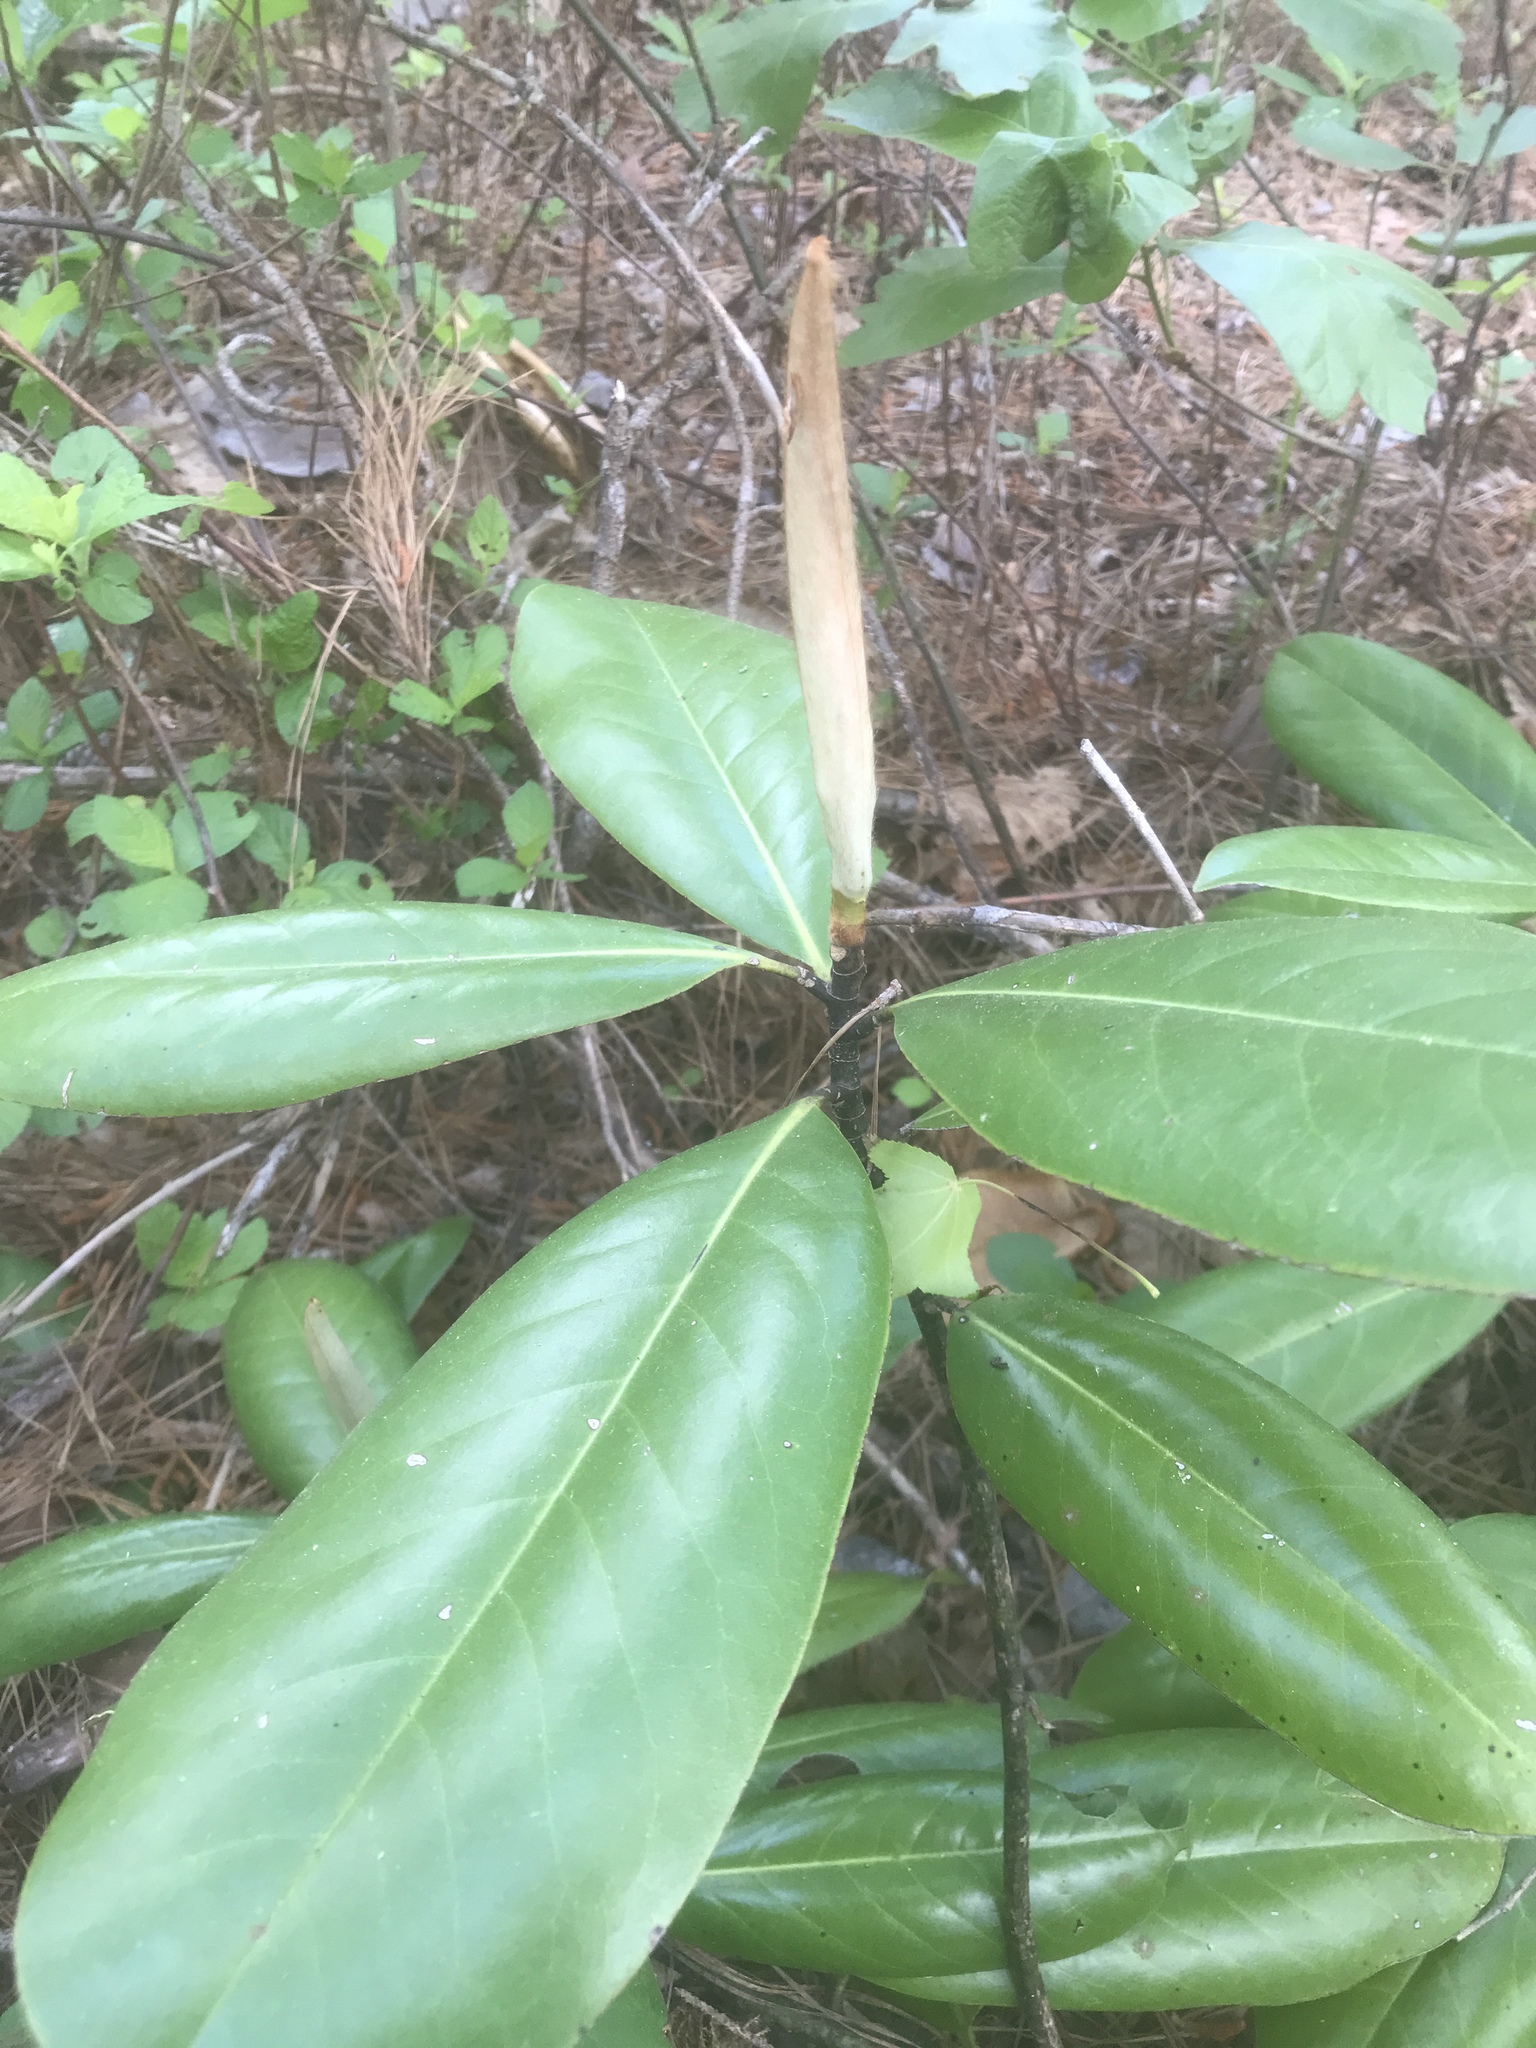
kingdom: Plantae
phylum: Tracheophyta
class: Magnoliopsida
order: Magnoliales
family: Magnoliaceae
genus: Magnolia
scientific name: Magnolia grandiflora
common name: Southern magnolia
